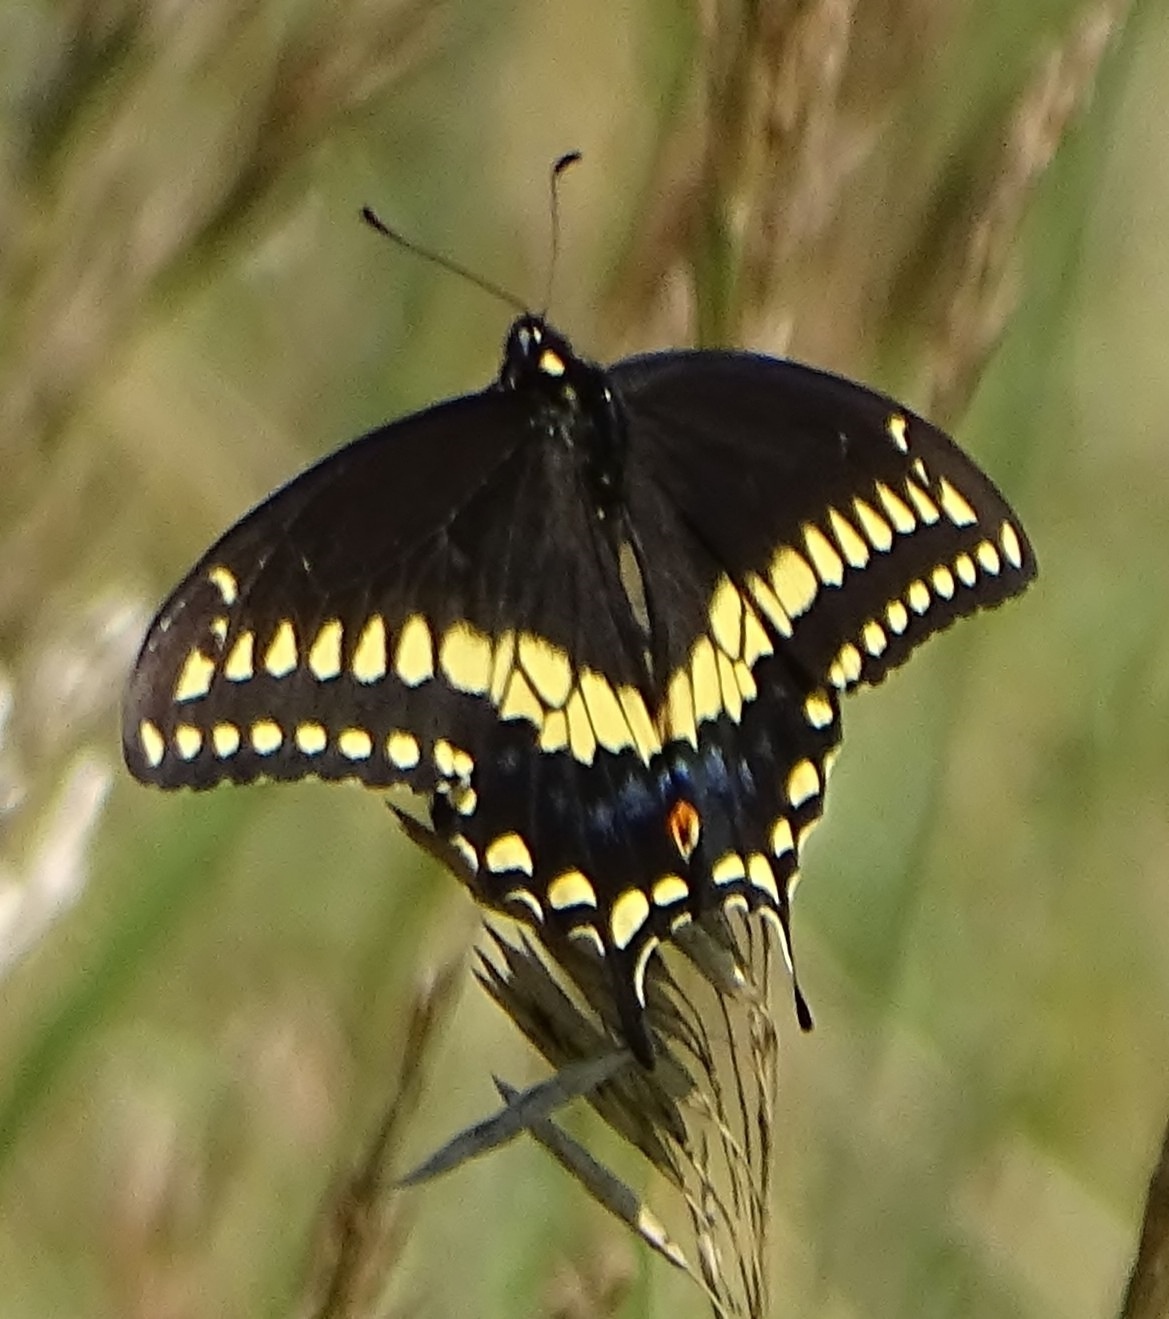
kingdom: Animalia
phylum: Arthropoda
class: Insecta
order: Lepidoptera
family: Papilionidae
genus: Papilio
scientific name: Papilio polyxenes
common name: Black swallowtail
